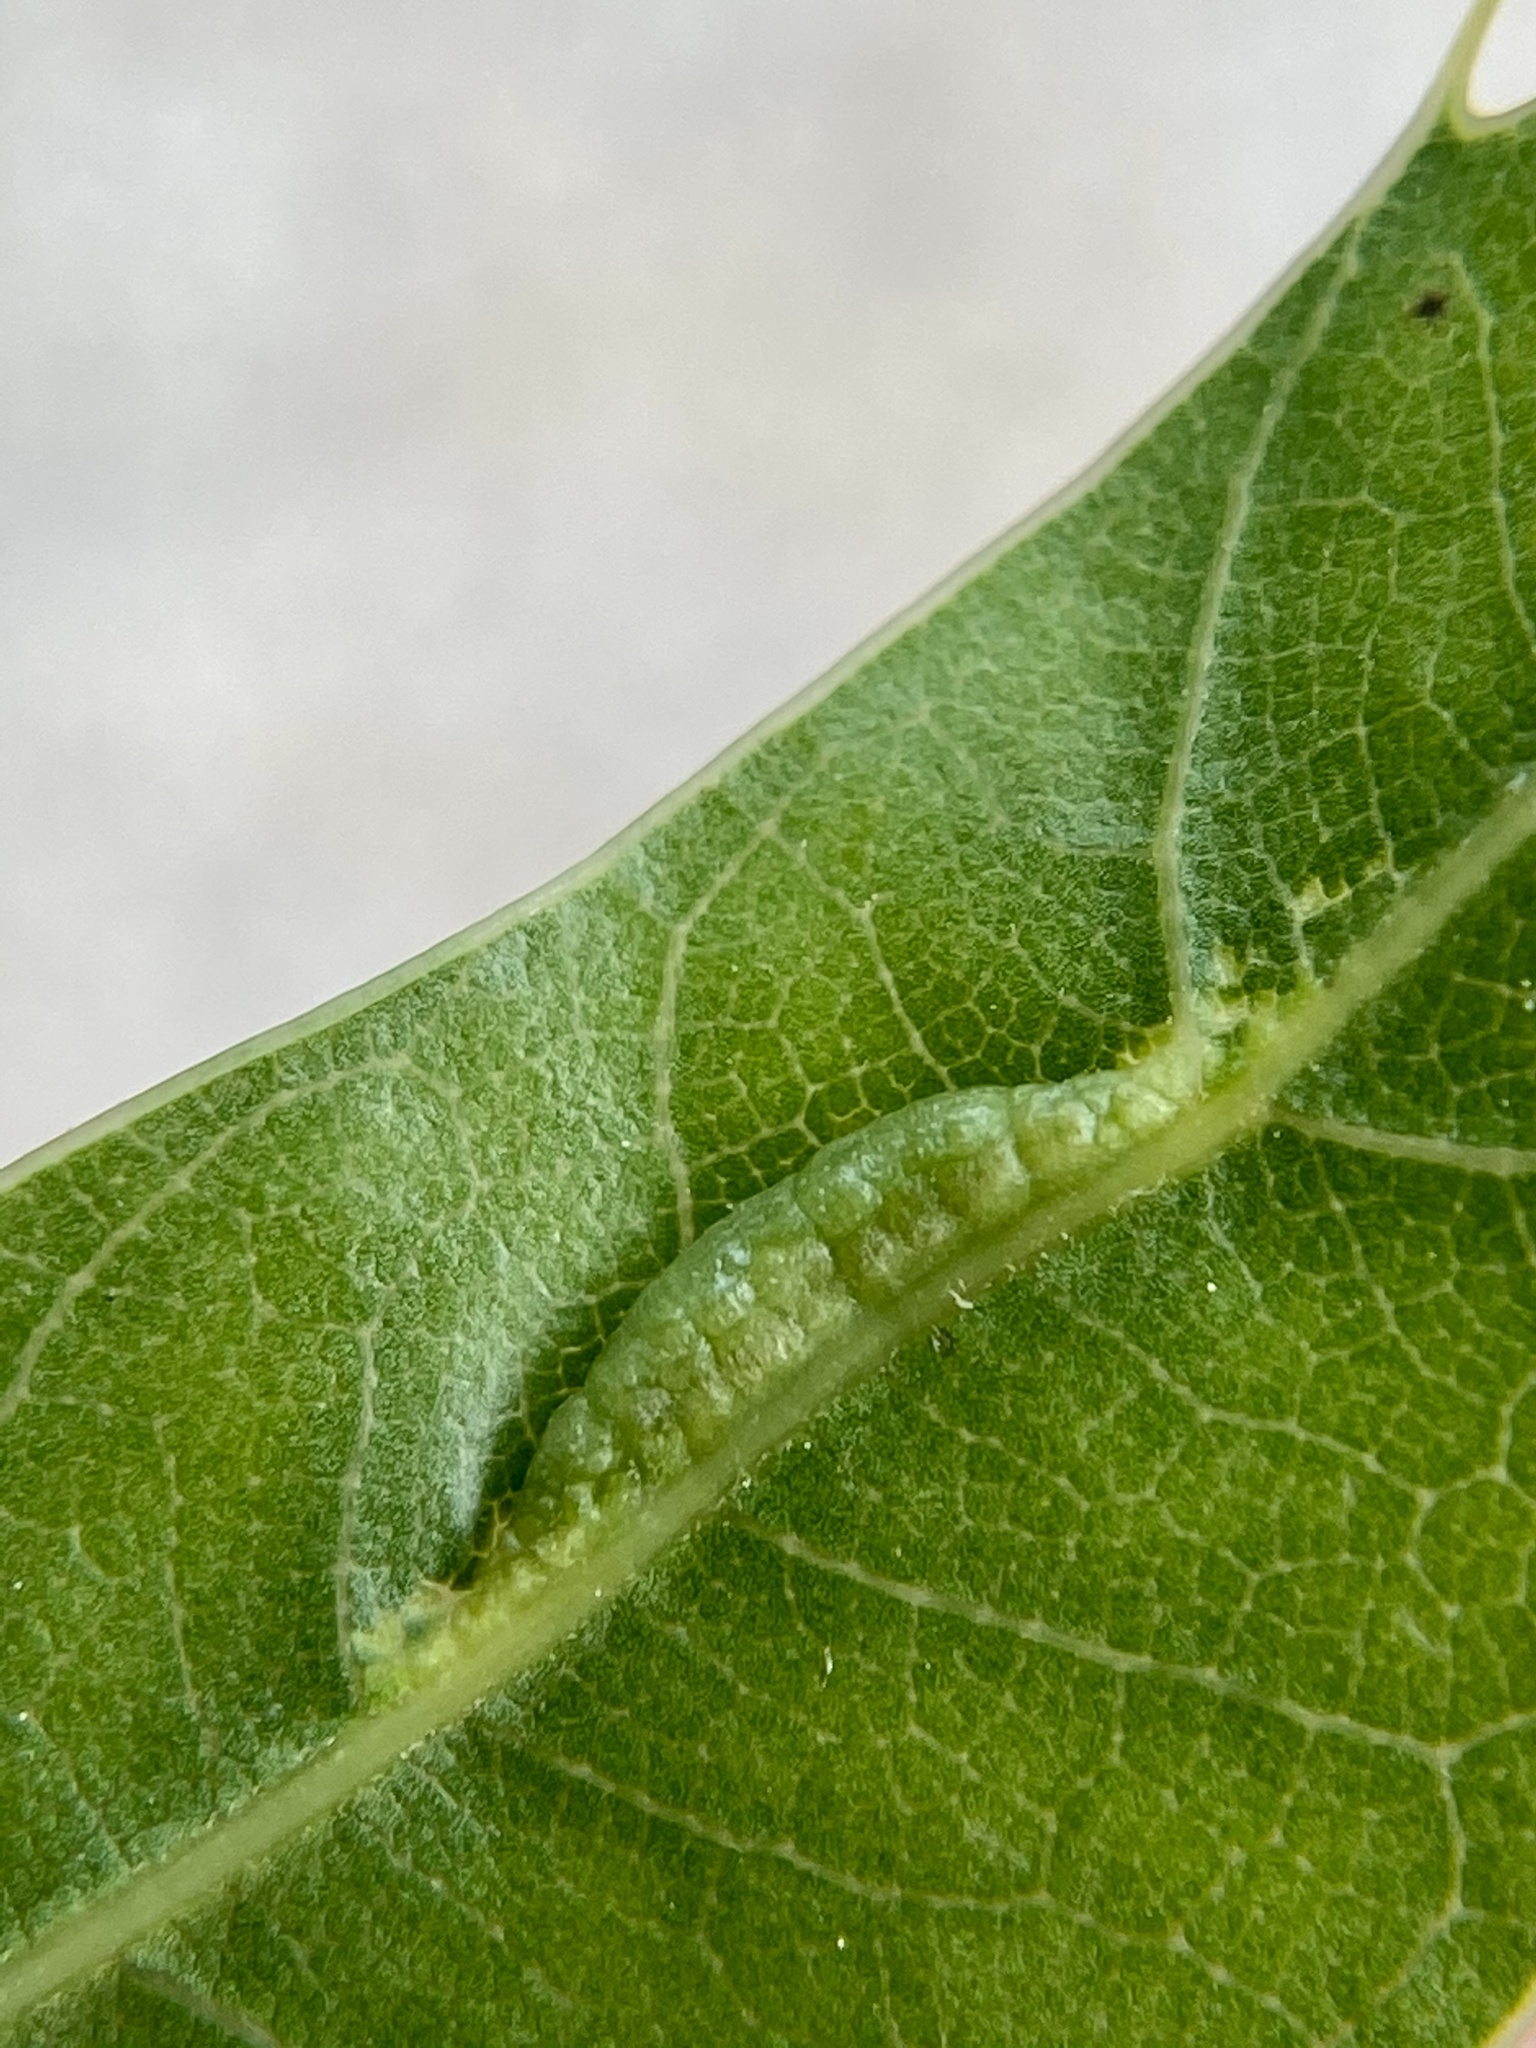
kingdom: Animalia
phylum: Arthropoda
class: Insecta
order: Diptera
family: Cecidomyiidae
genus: Macrodiplosis
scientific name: Macrodiplosis majalis
